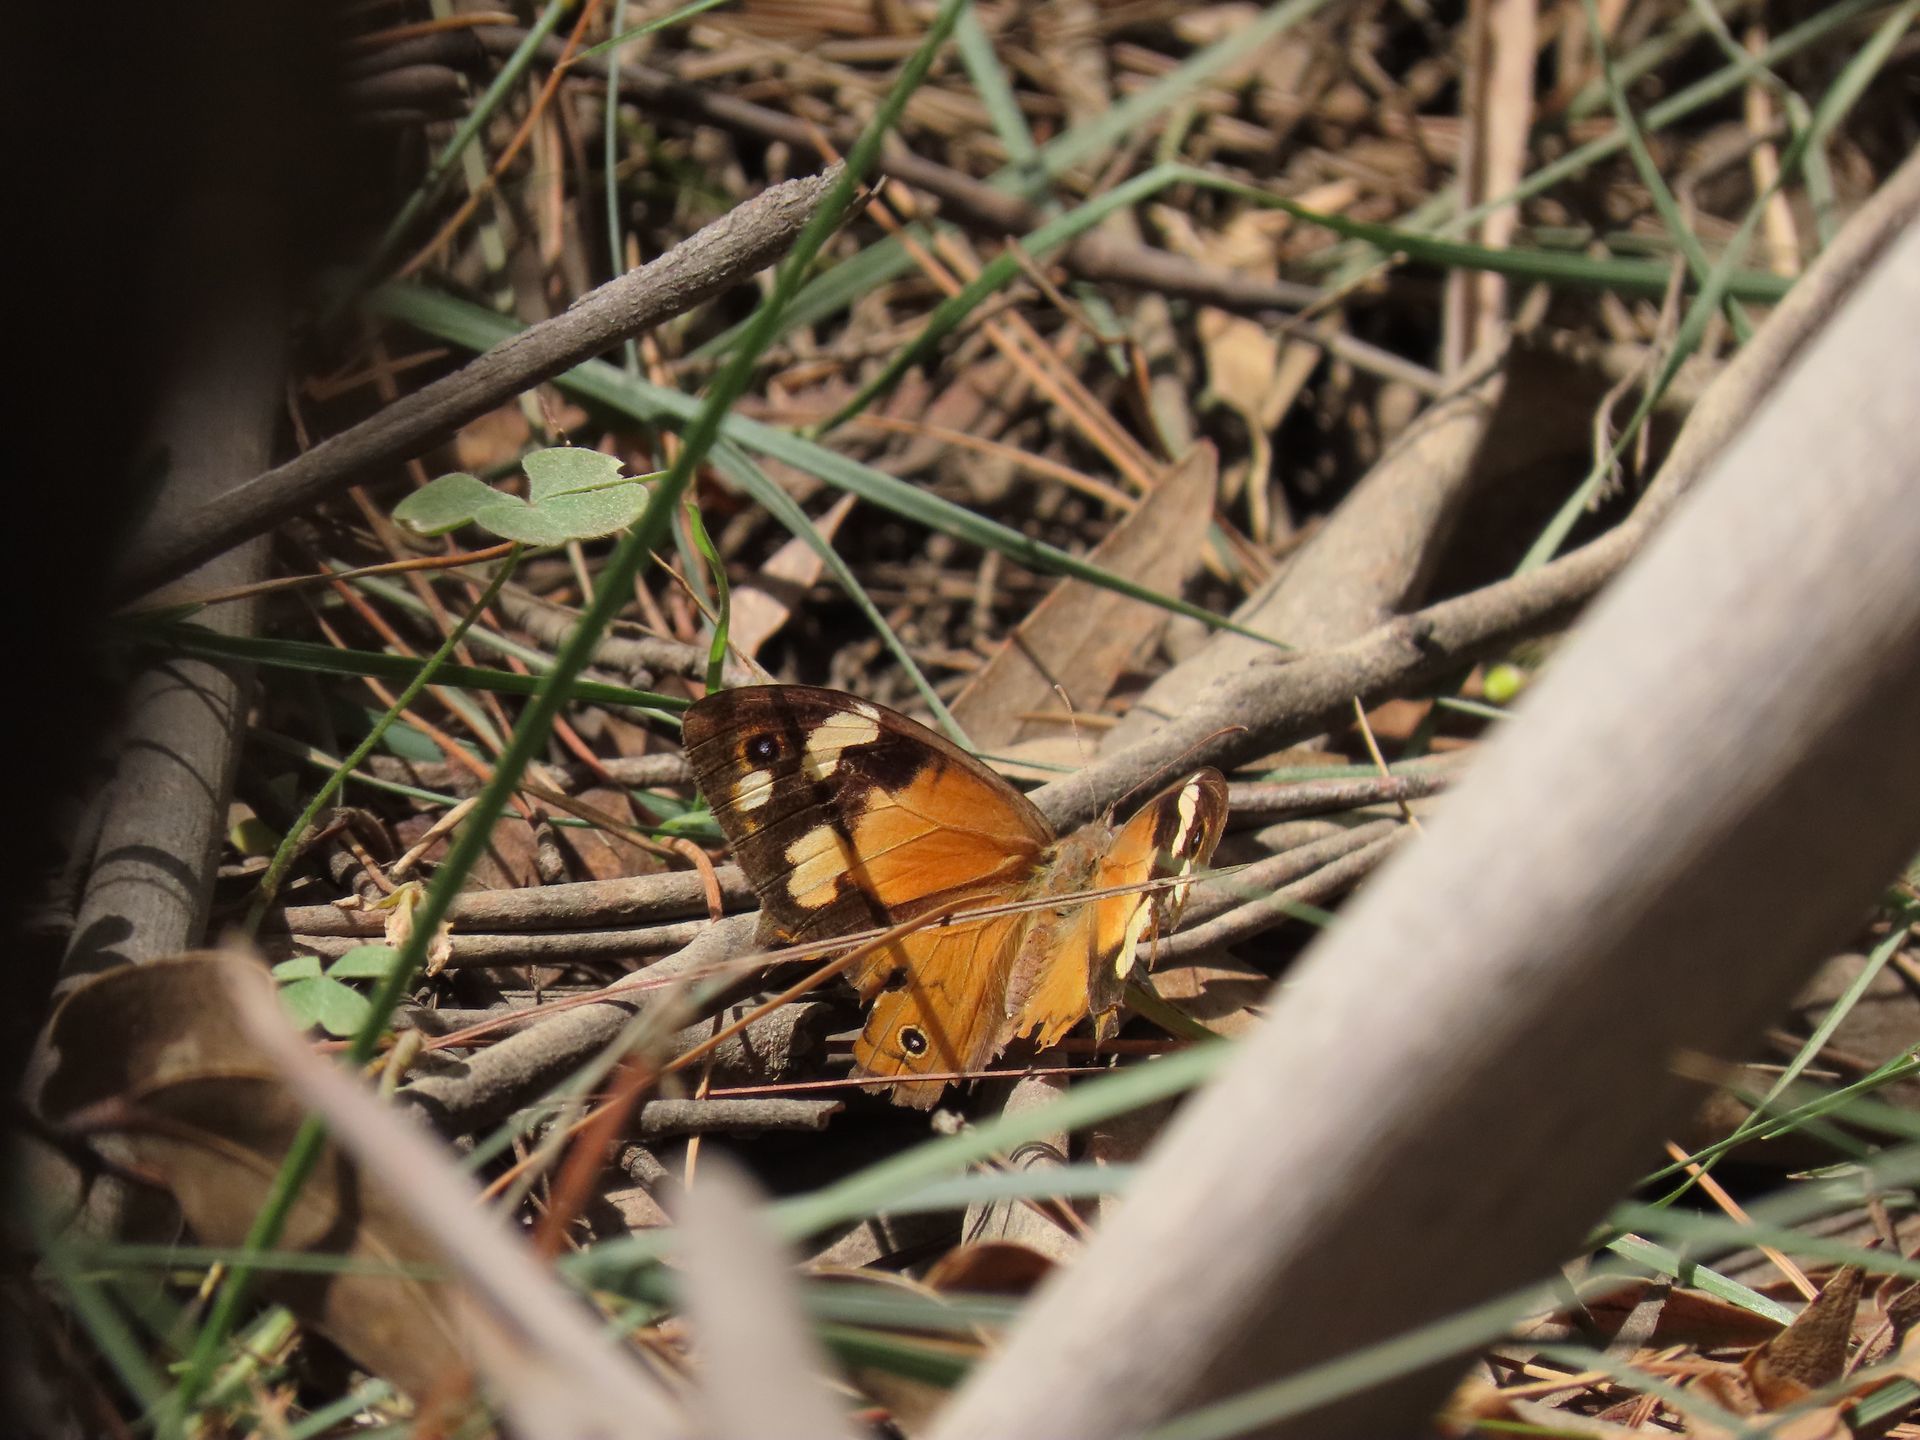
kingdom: Animalia
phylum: Arthropoda
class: Insecta
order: Lepidoptera
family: Nymphalidae
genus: Heteronympha
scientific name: Heteronympha merope
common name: Common brown
